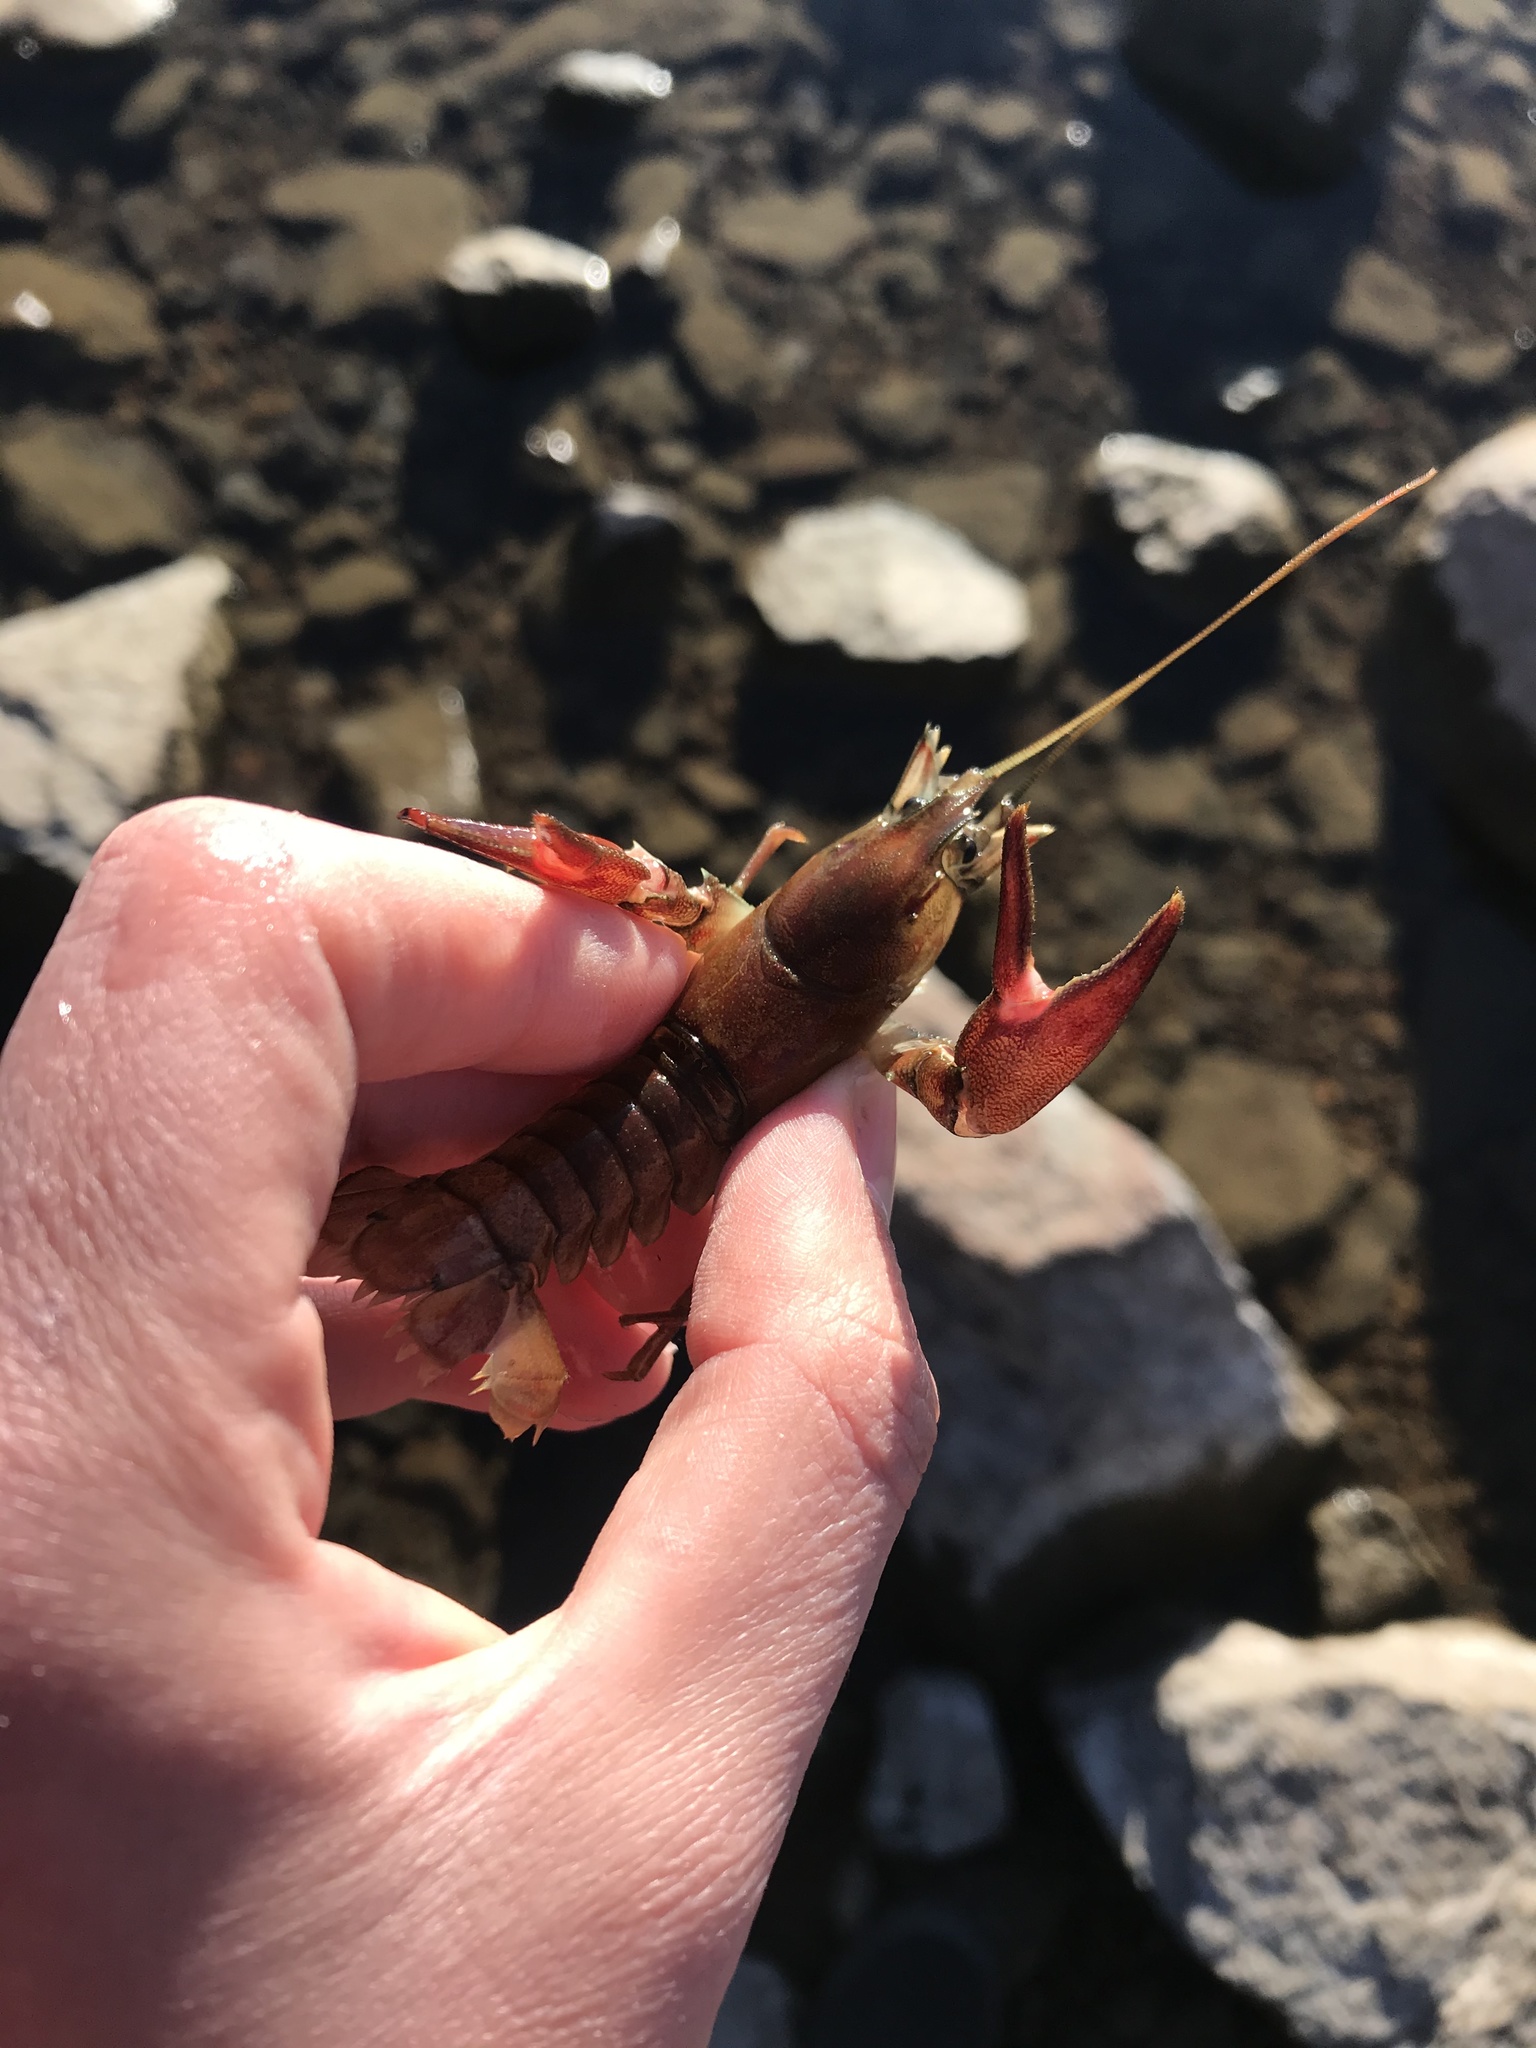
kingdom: Animalia
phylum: Arthropoda
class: Malacostraca
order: Decapoda
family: Astacidae
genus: Pacifastacus
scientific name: Pacifastacus leniusculus
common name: Signal crayfish
